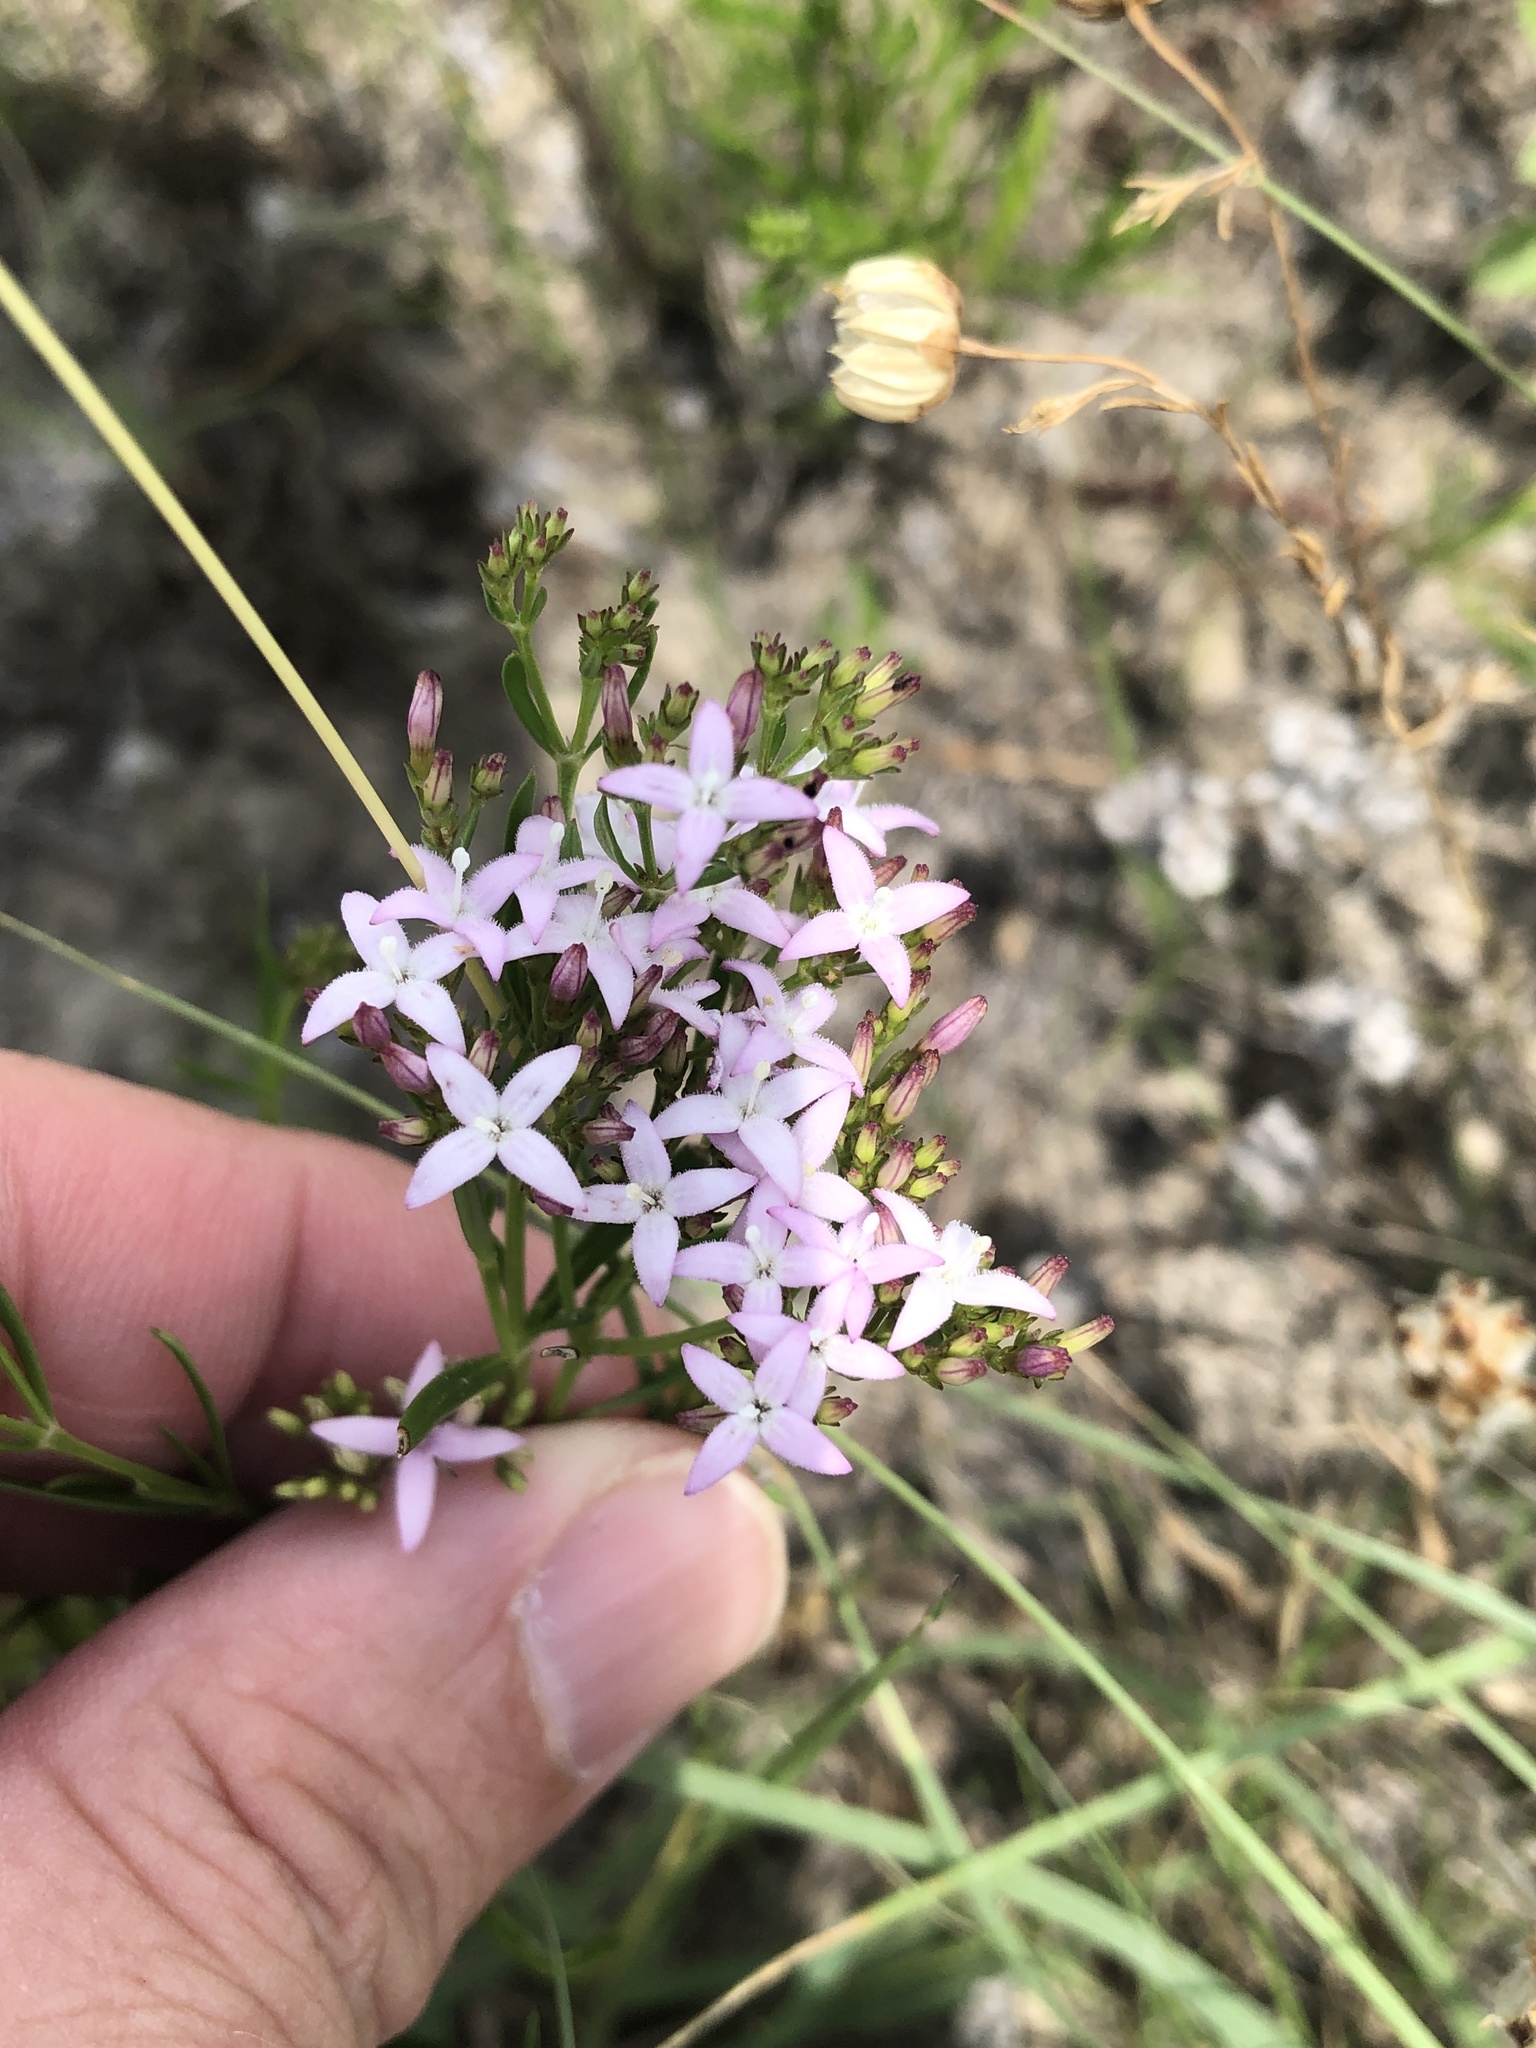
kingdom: Plantae
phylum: Tracheophyta
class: Magnoliopsida
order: Gentianales
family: Rubiaceae
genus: Stenaria
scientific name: Stenaria nigricans
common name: Diamondflowers
